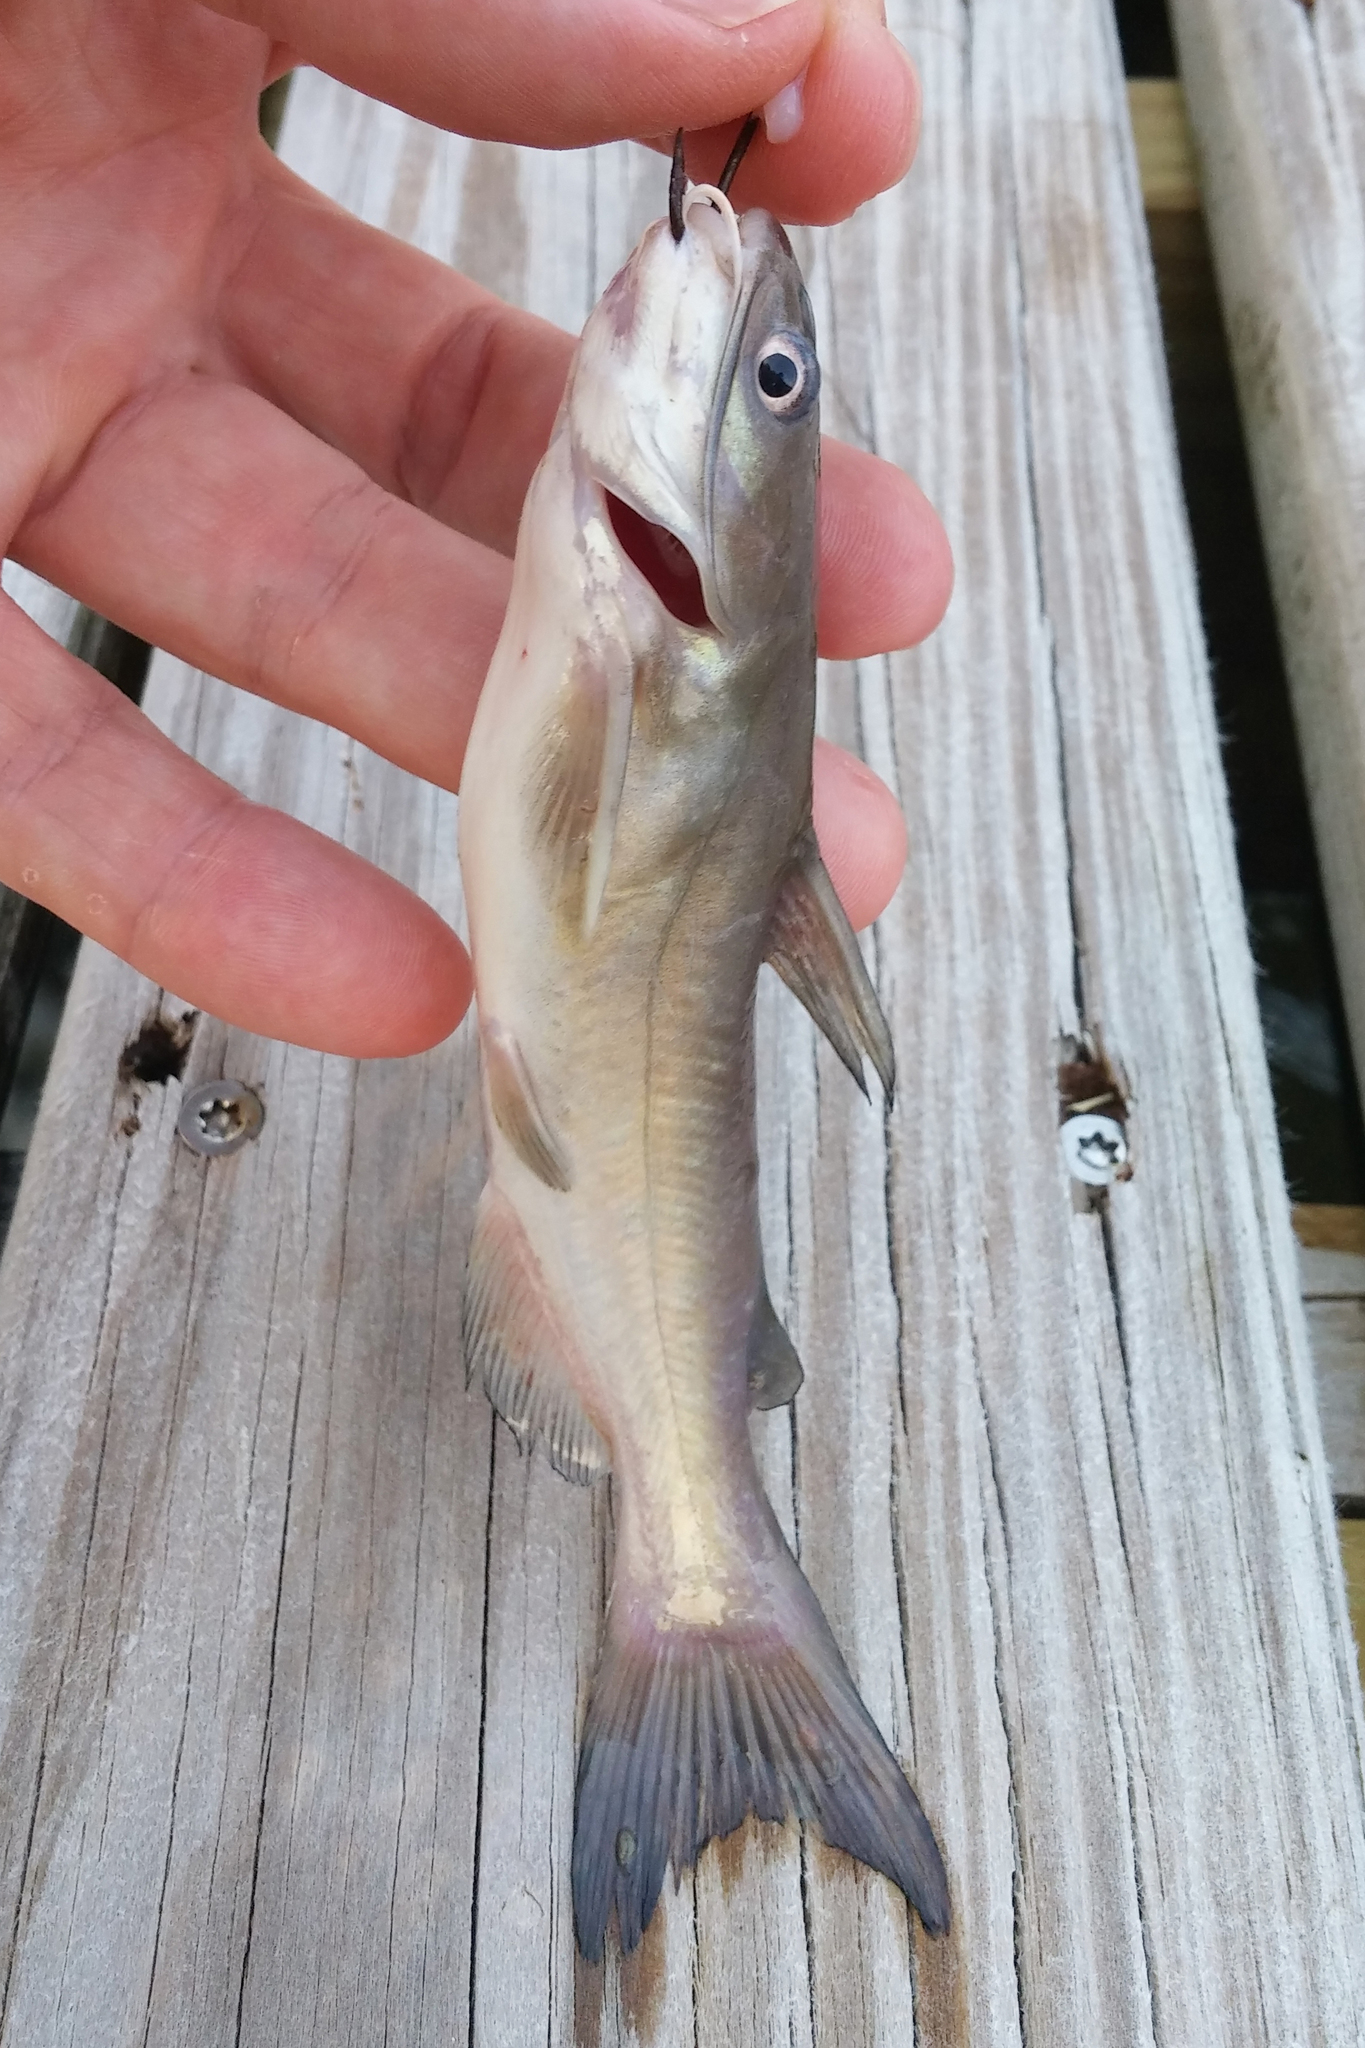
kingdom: Animalia
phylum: Chordata
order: Siluriformes
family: Ictaluridae
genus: Ameiurus
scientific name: Ameiurus catus
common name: White catfish
